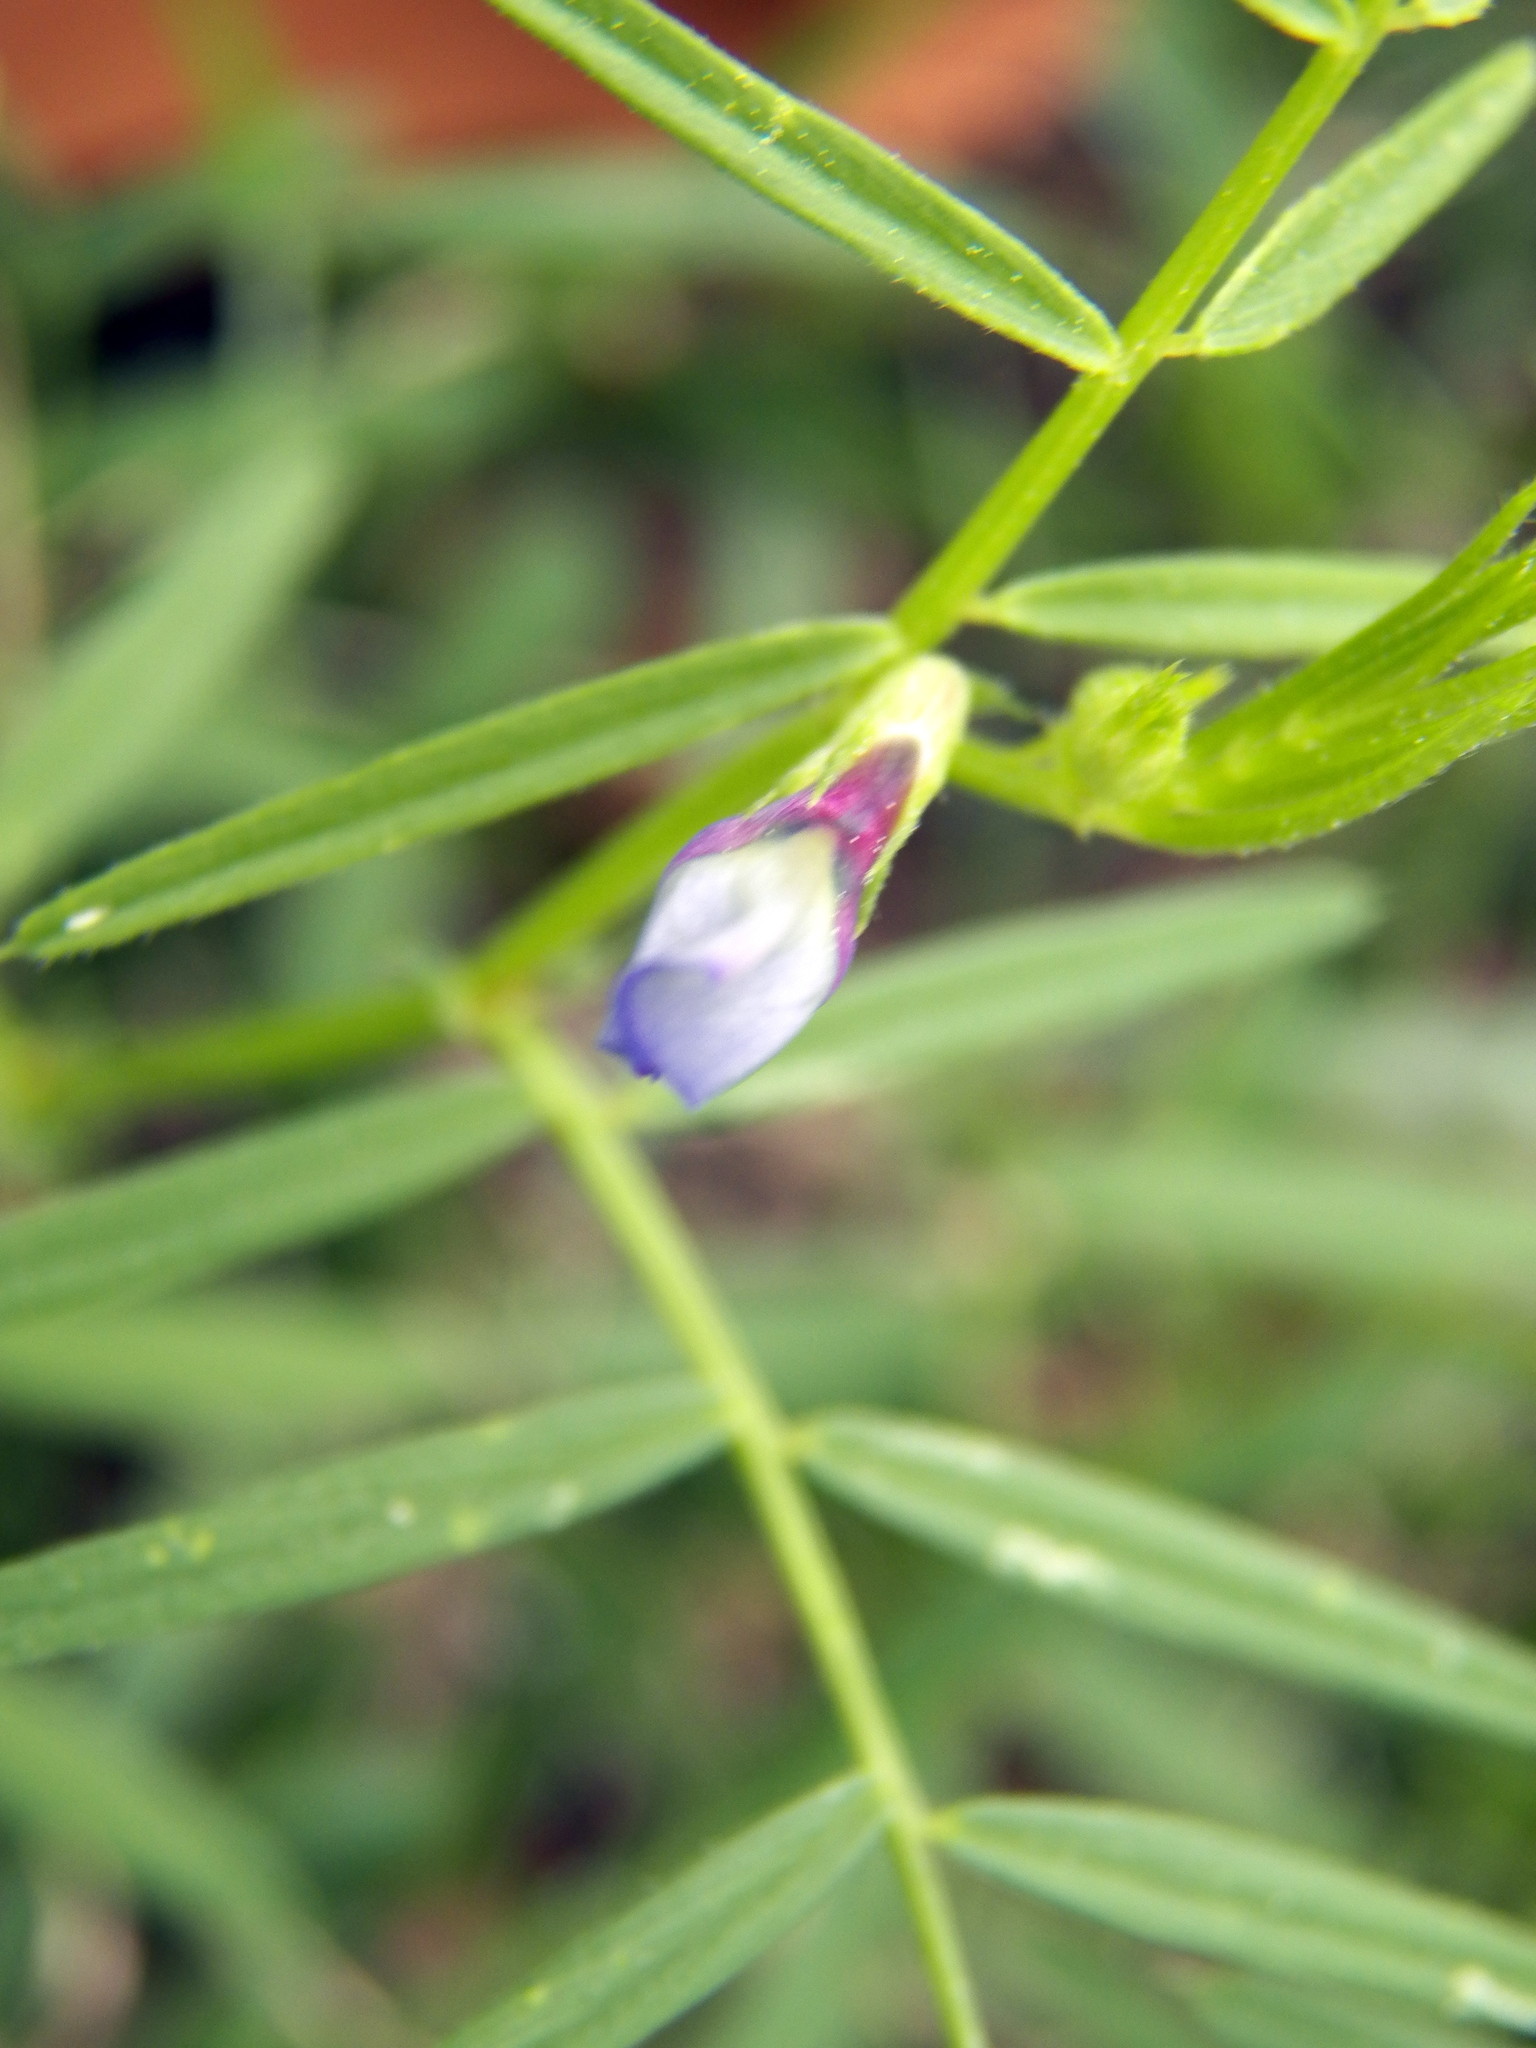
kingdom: Plantae
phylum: Tracheophyta
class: Magnoliopsida
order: Fabales
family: Fabaceae
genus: Vicia
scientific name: Vicia sativa
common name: Garden vetch
